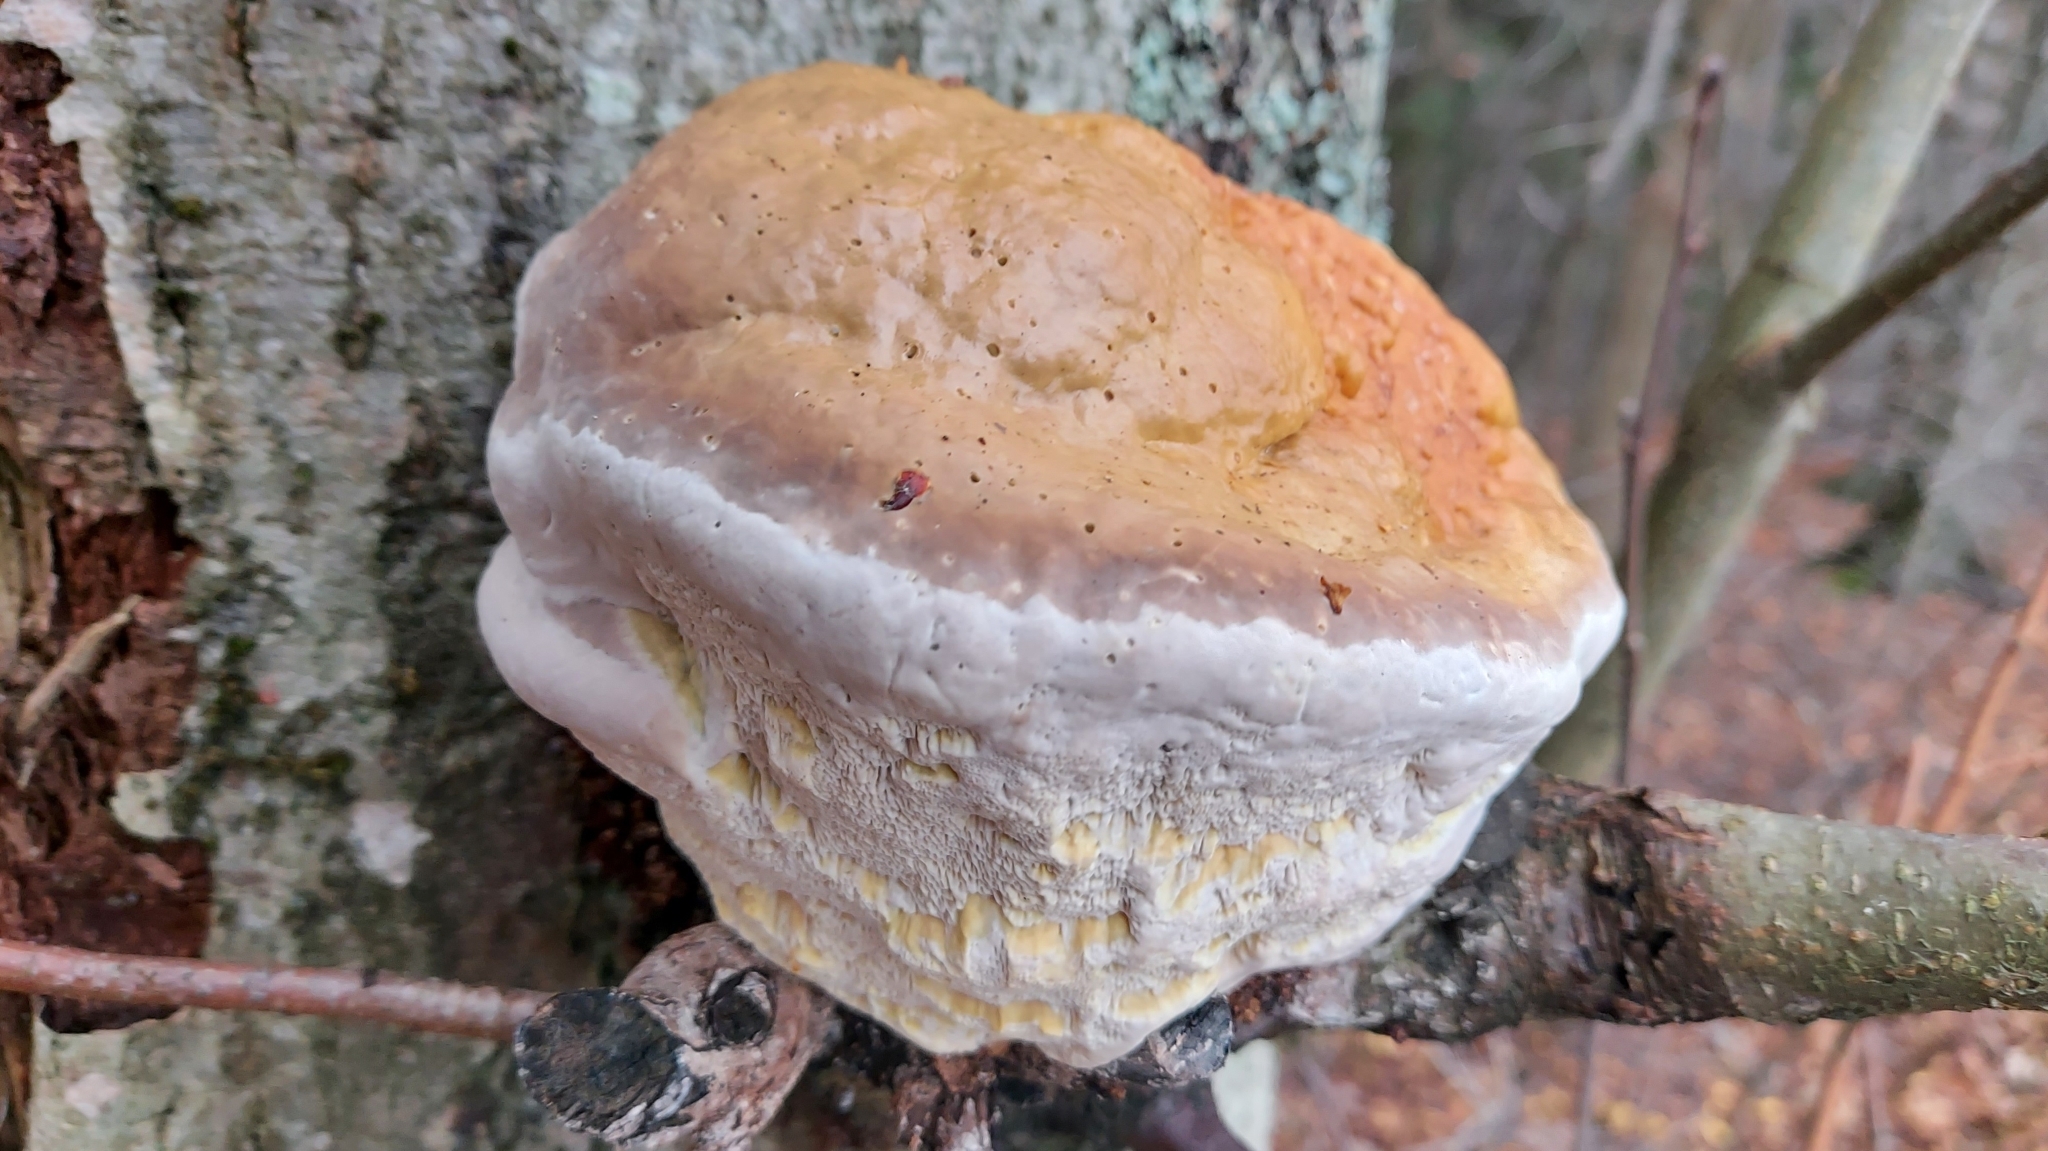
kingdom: Fungi
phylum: Basidiomycota
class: Agaricomycetes
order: Polyporales
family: Fomitopsidaceae
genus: Fomitopsis
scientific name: Fomitopsis pinicola
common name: Red-belted bracket
